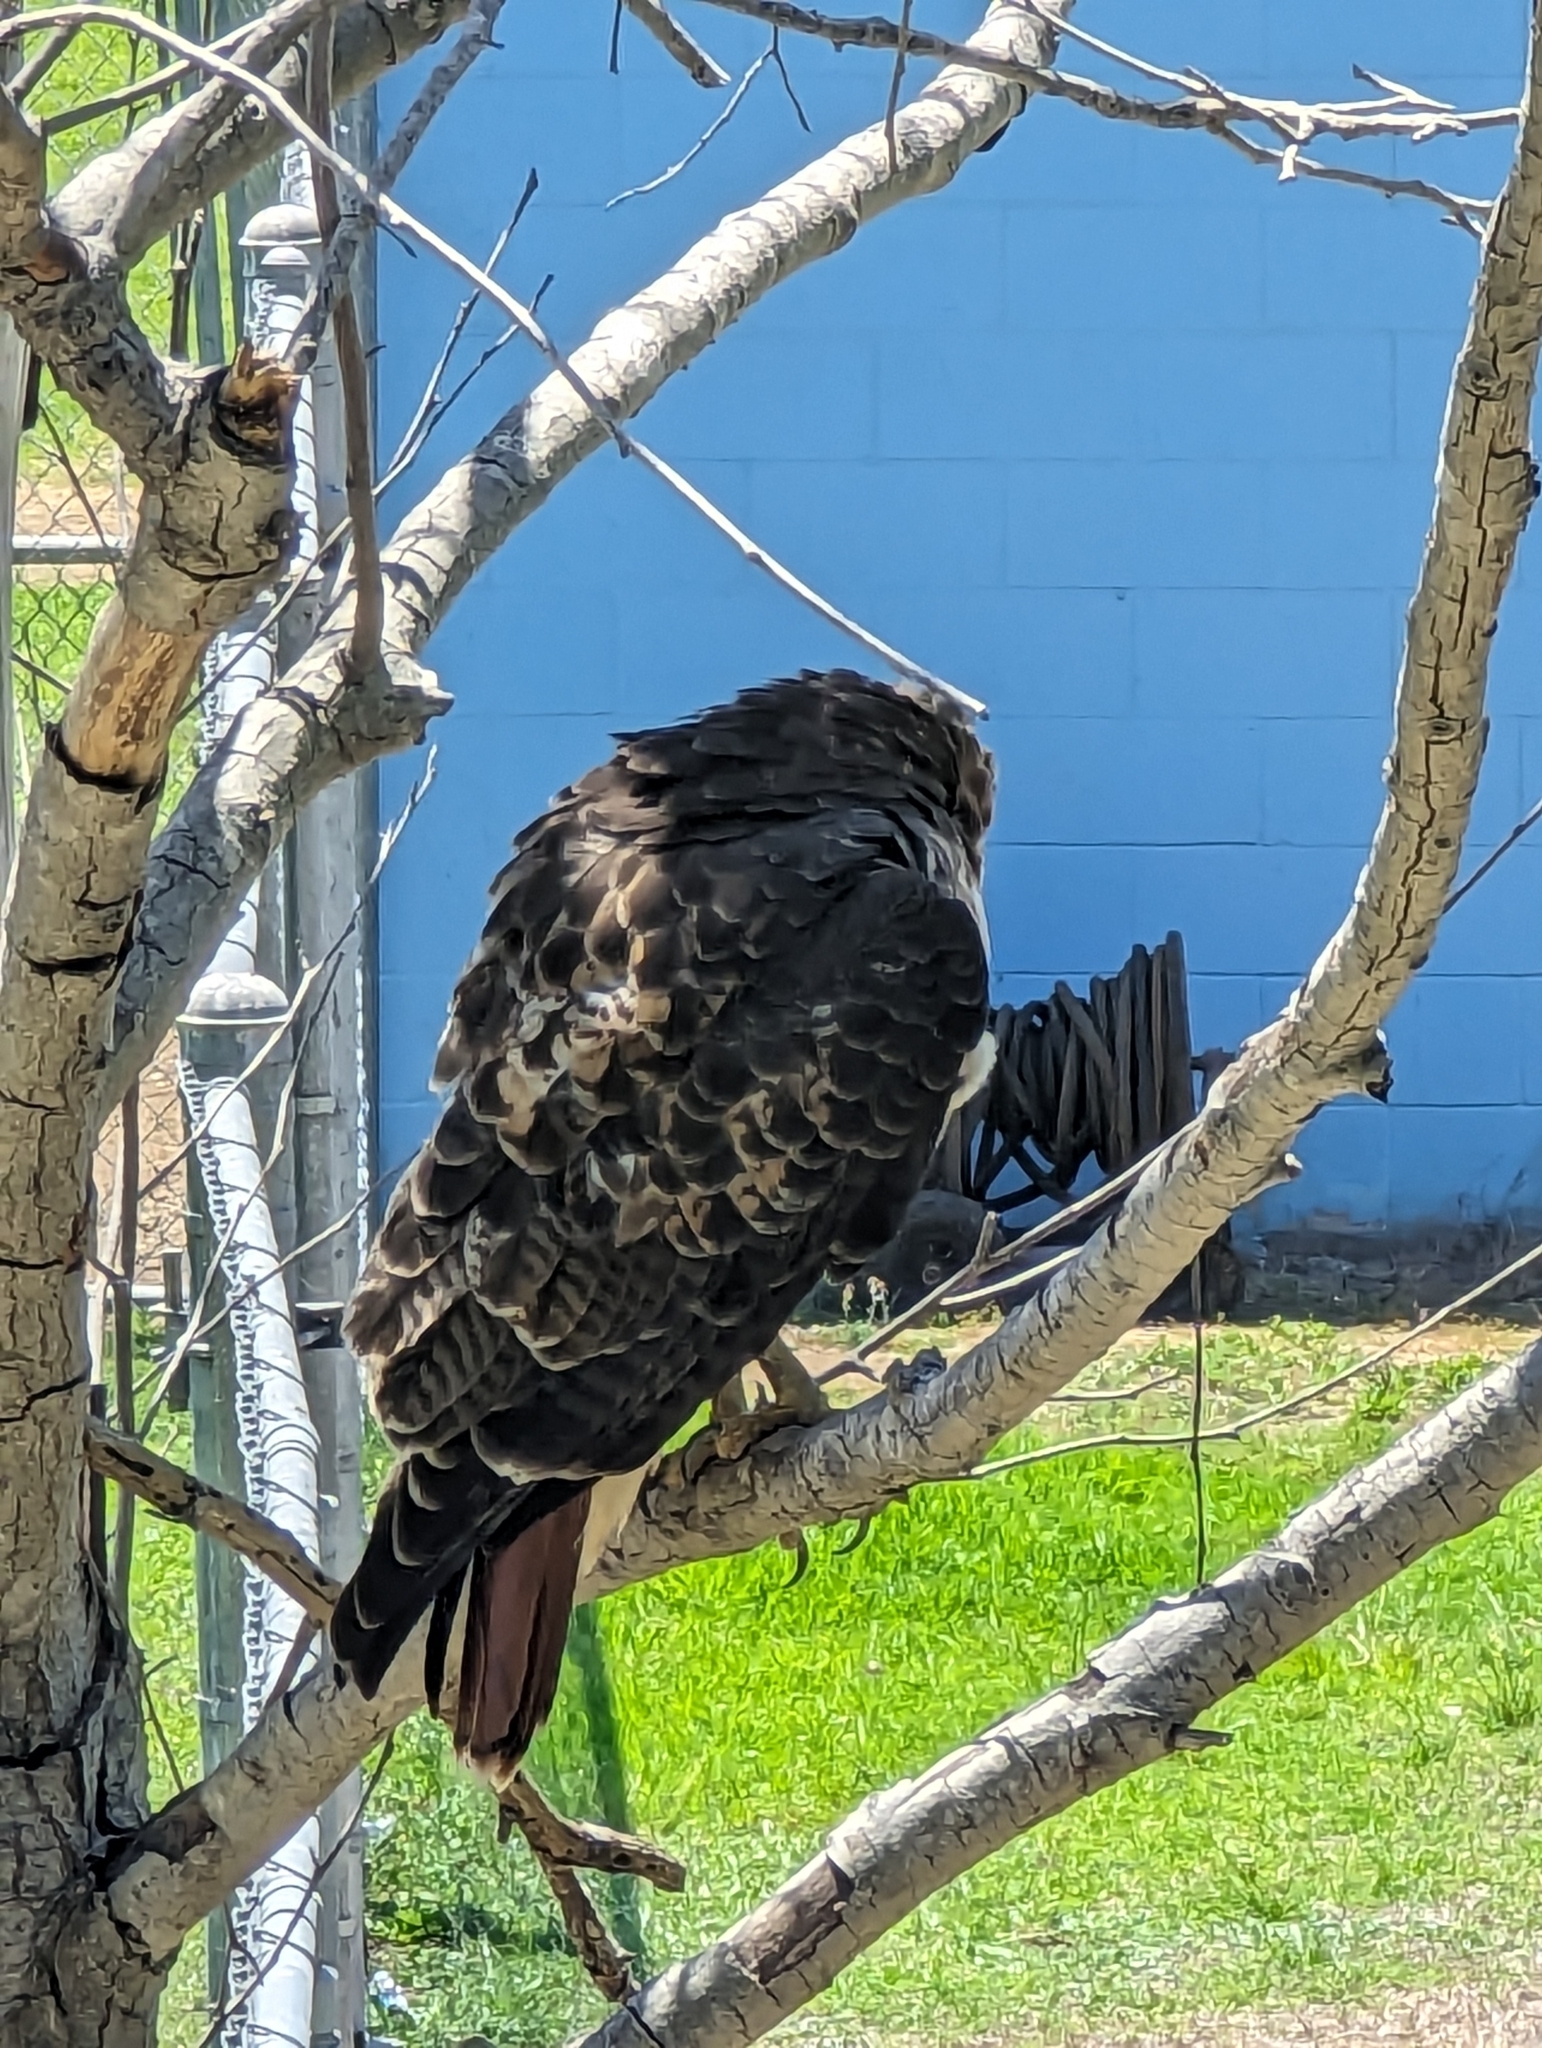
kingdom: Animalia
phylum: Chordata
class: Aves
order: Accipitriformes
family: Accipitridae
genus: Buteo
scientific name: Buteo jamaicensis
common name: Red-tailed hawk
